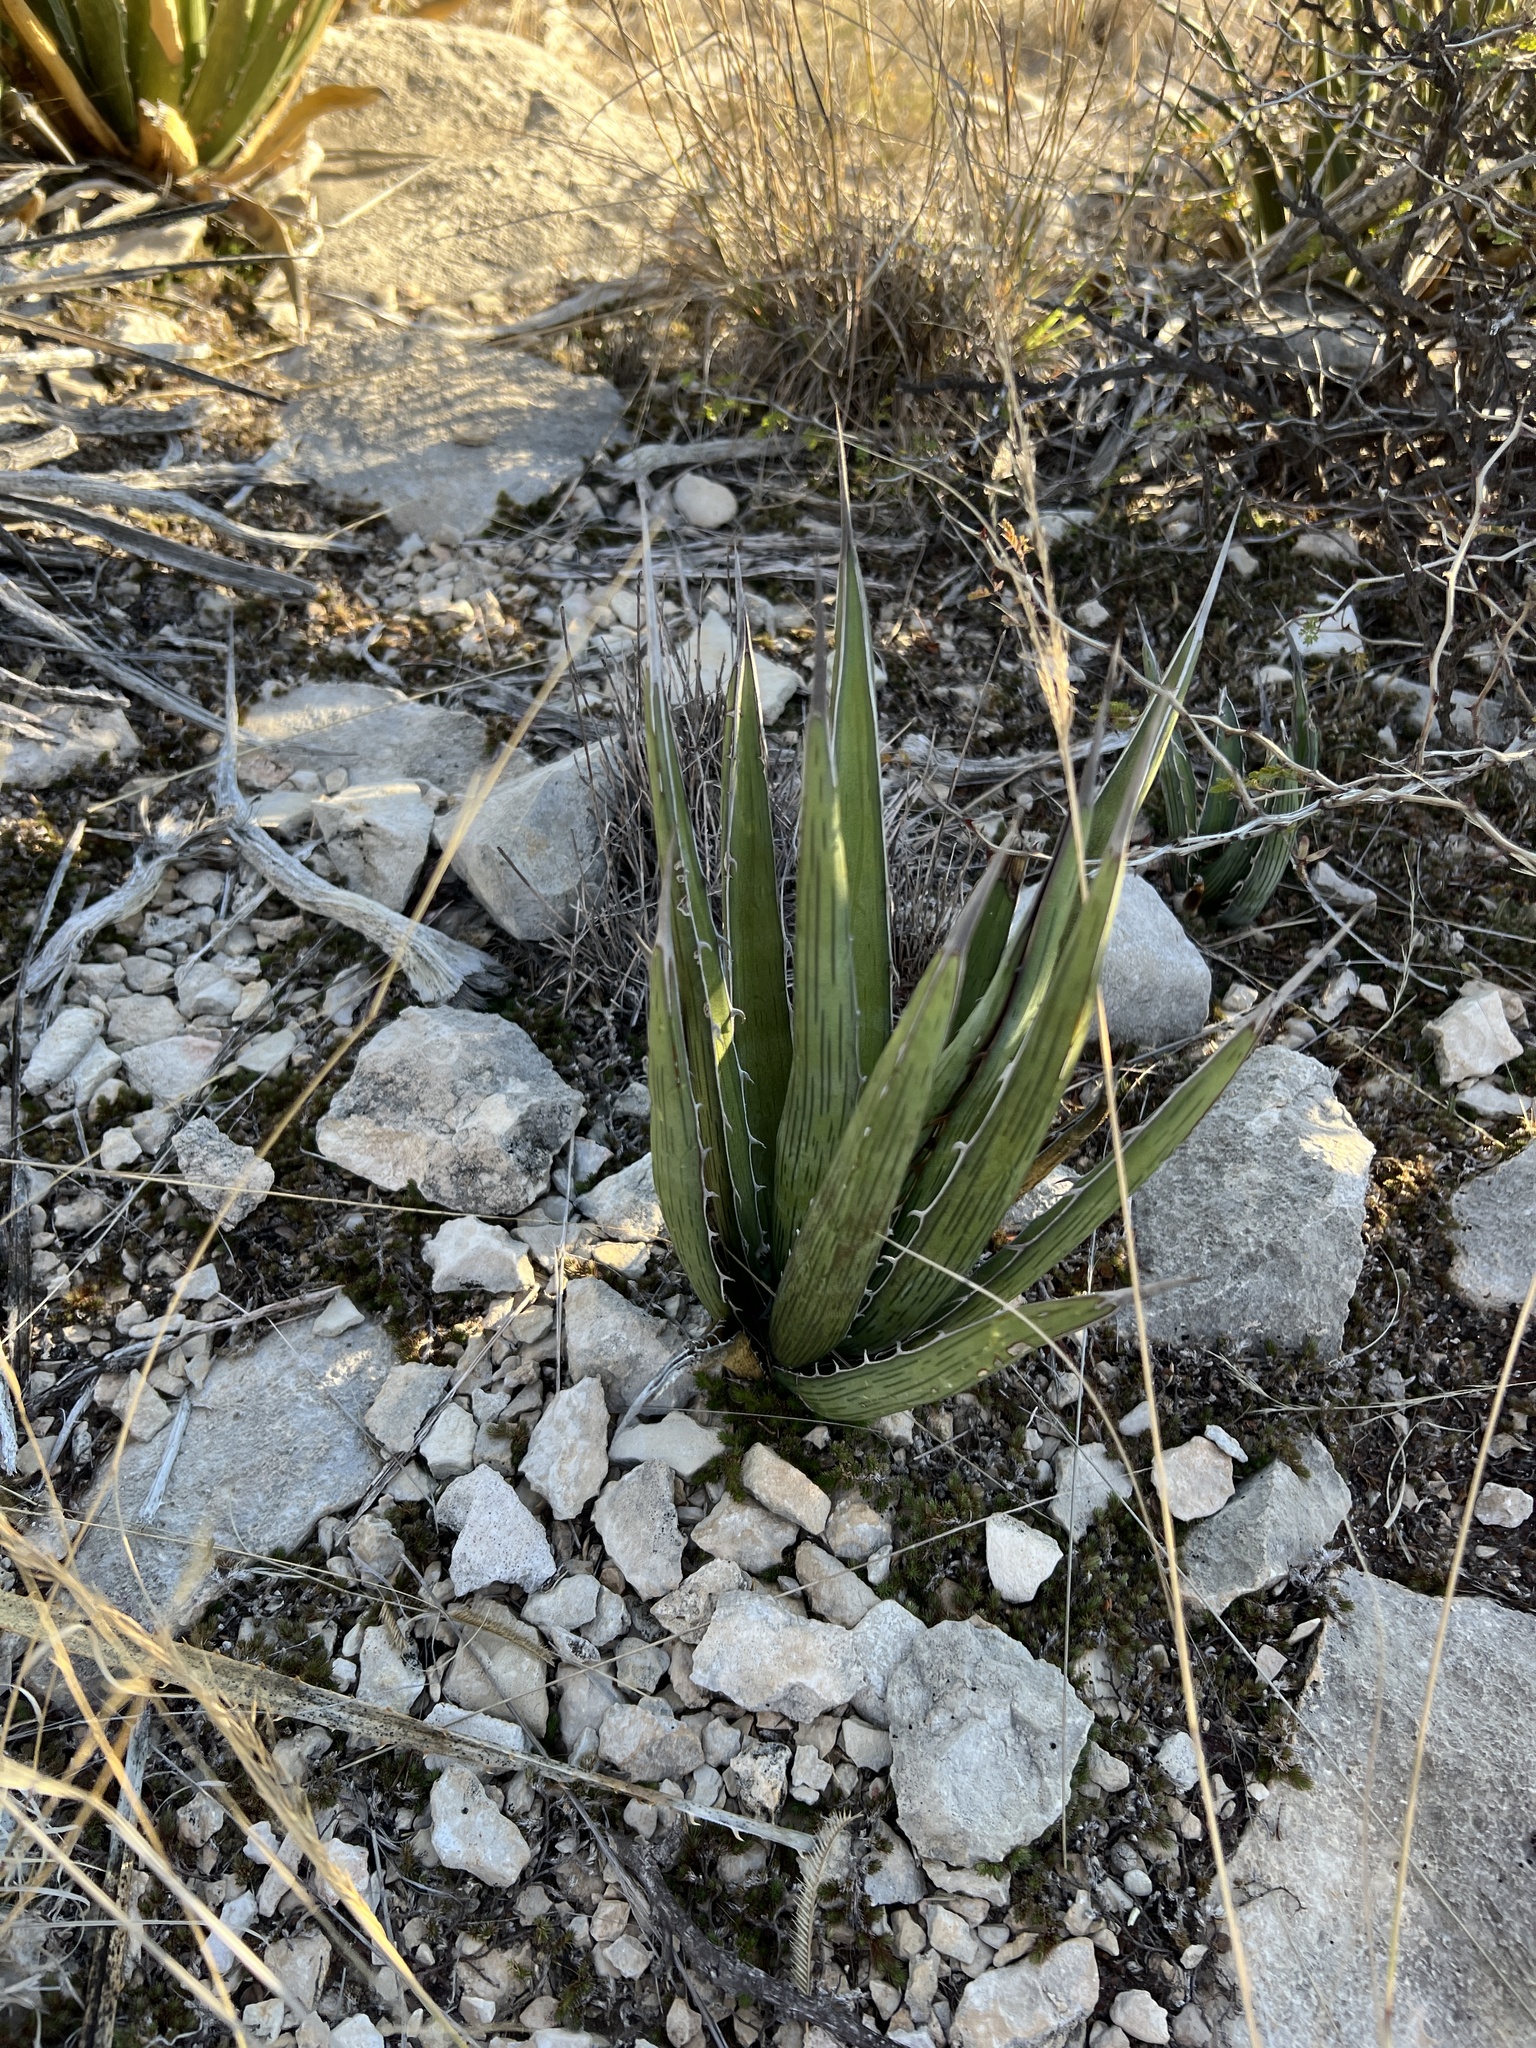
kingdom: Plantae
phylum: Tracheophyta
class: Liliopsida
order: Asparagales
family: Asparagaceae
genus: Agave
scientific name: Agave lechuguilla
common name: Lecheguilla agave
